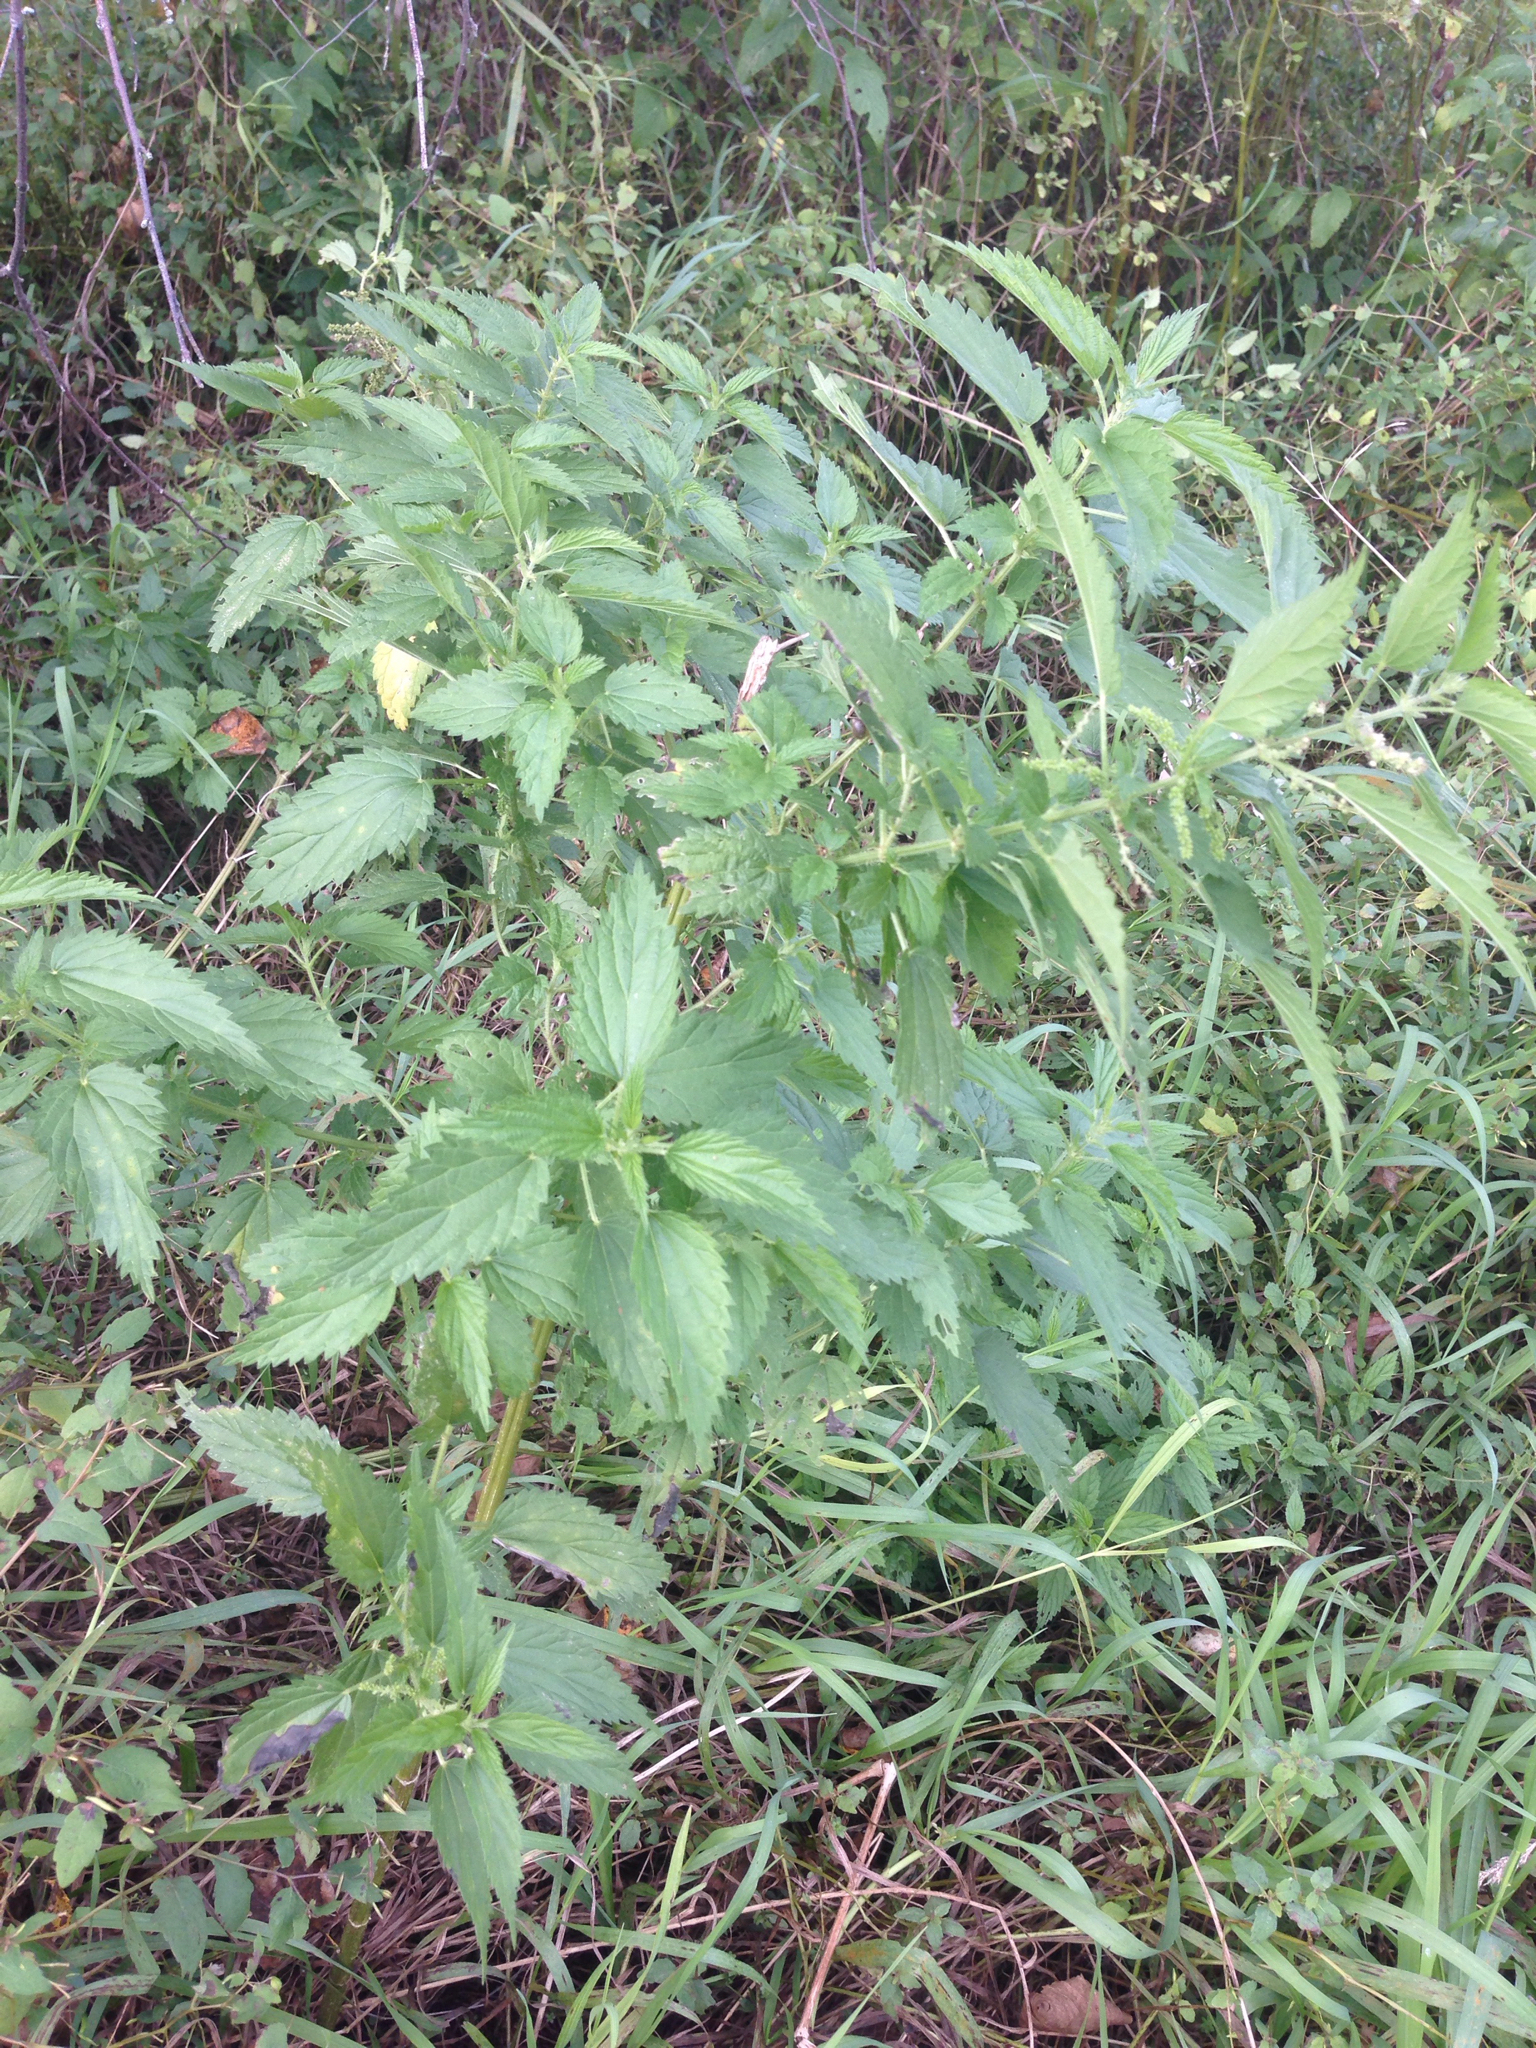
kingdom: Plantae
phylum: Tracheophyta
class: Magnoliopsida
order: Rosales
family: Urticaceae
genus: Urtica
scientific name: Urtica dioica
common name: Common nettle
